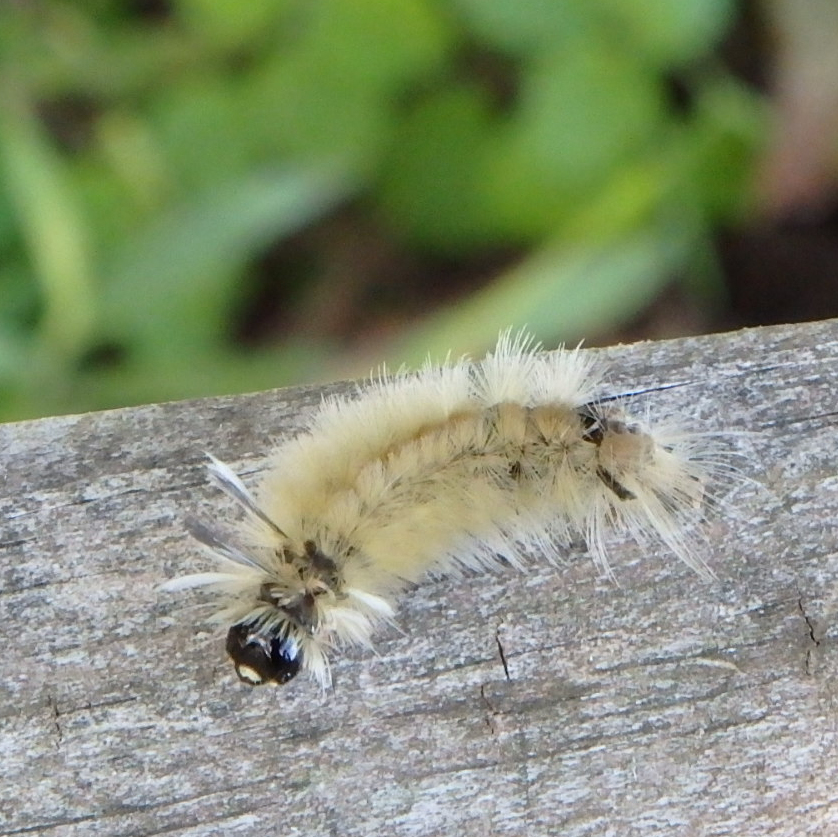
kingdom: Animalia
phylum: Arthropoda
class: Insecta
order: Lepidoptera
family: Erebidae
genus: Halysidota
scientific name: Halysidota tessellaris
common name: Banded tussock moth
